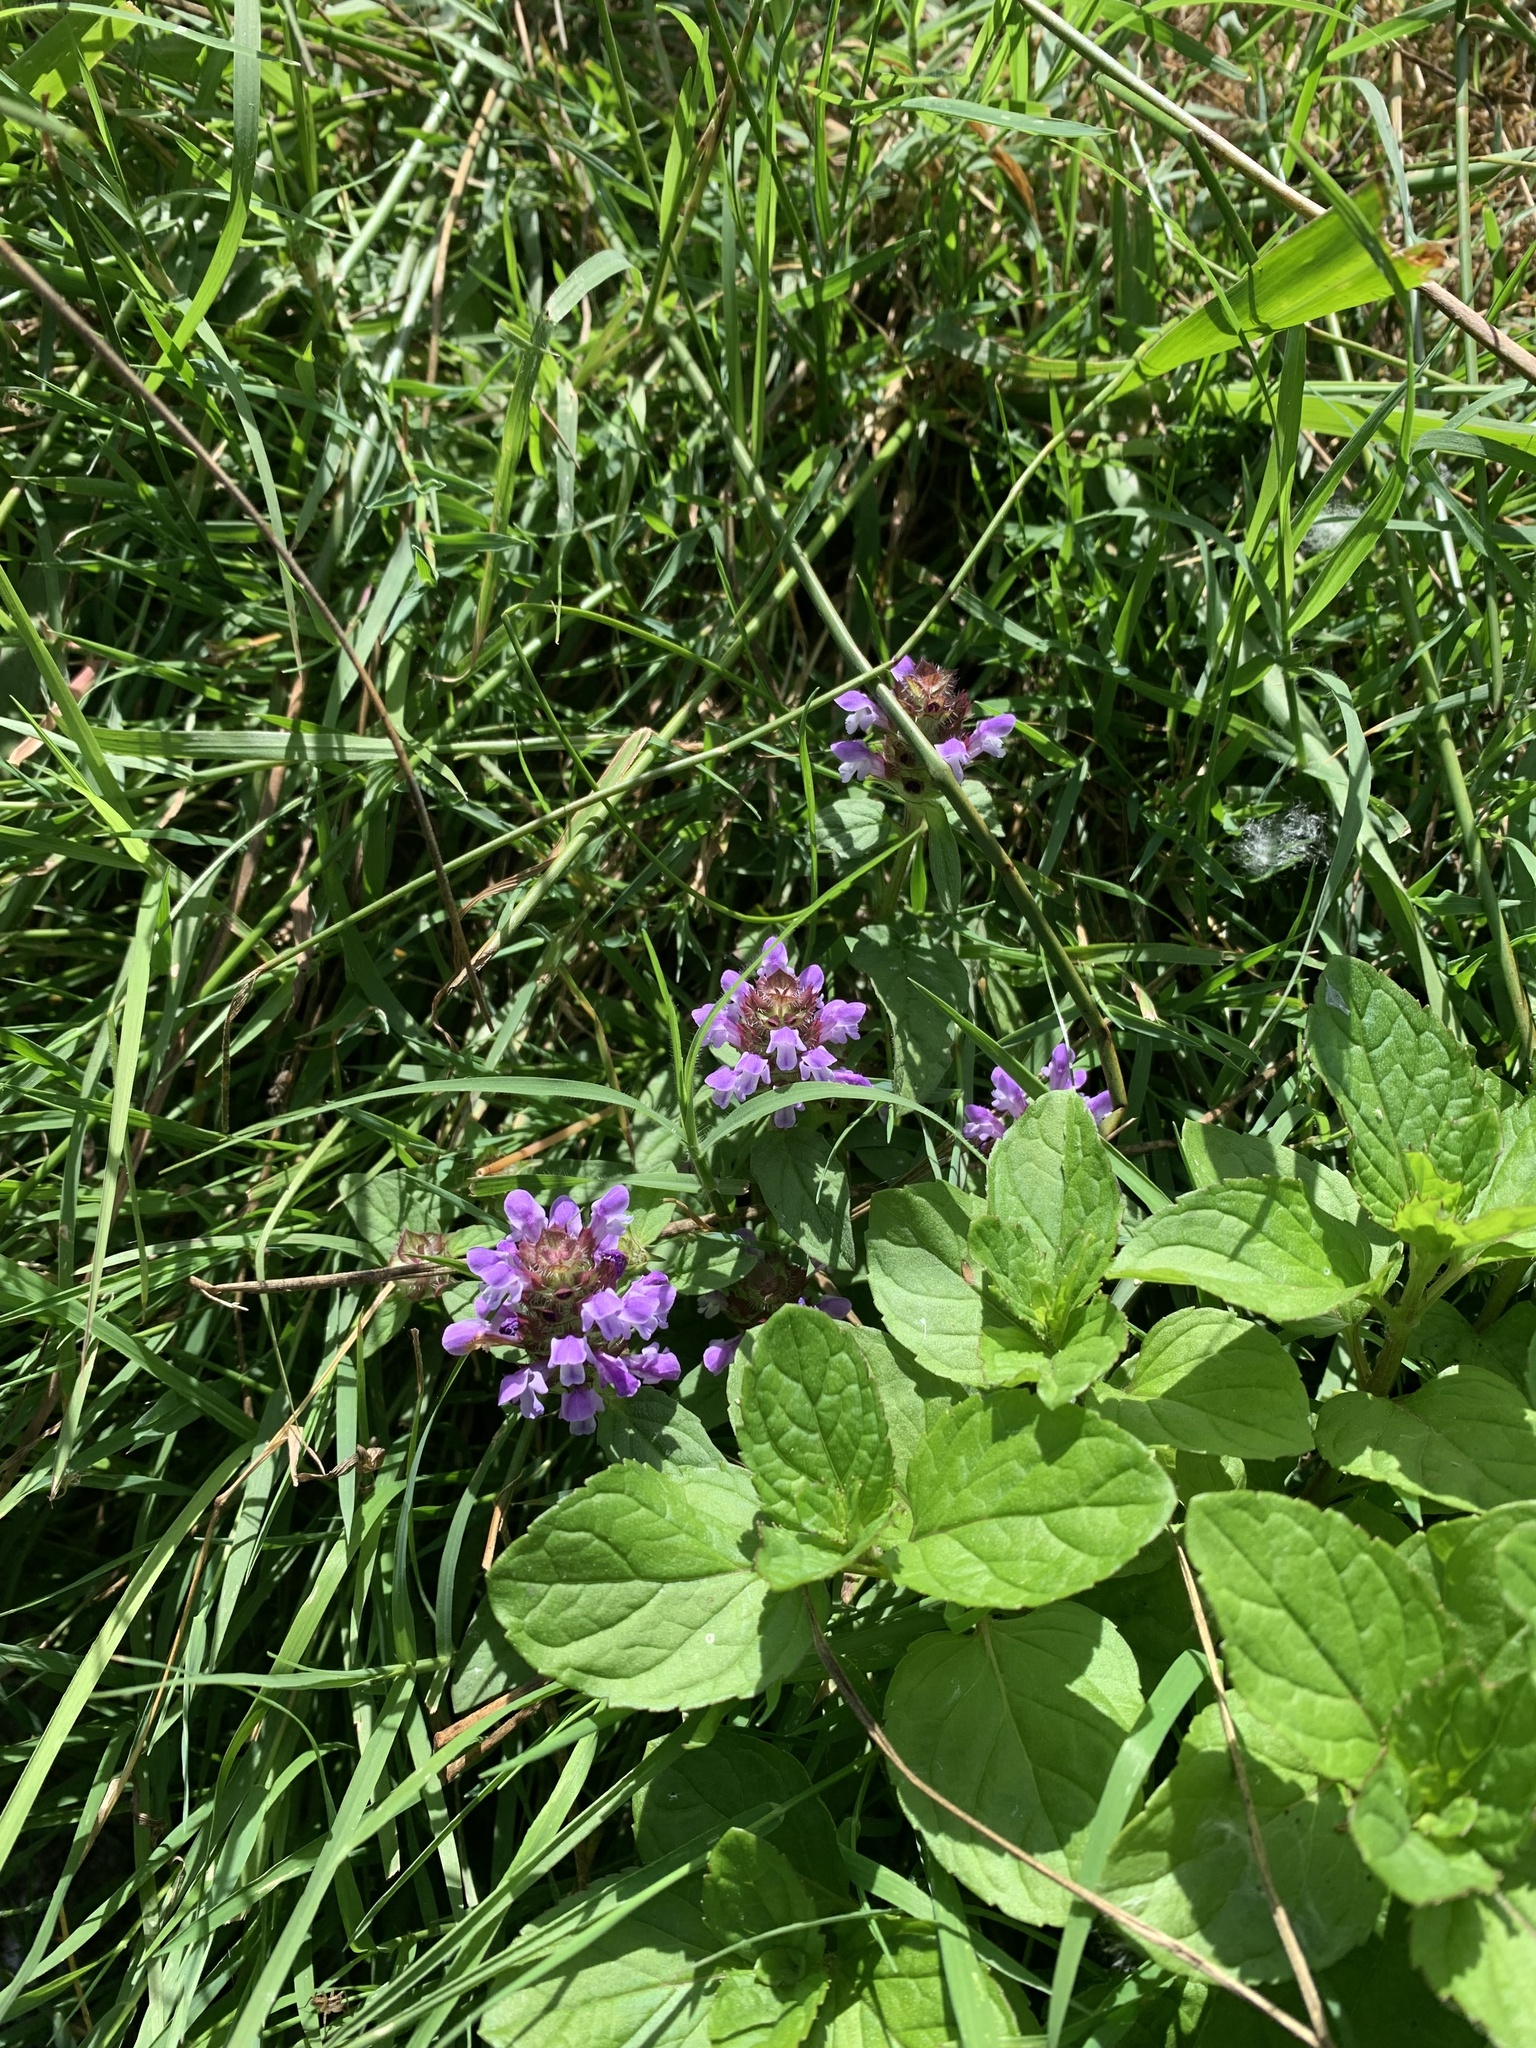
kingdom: Plantae
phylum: Tracheophyta
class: Magnoliopsida
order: Lamiales
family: Lamiaceae
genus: Prunella
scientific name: Prunella vulgaris
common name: Heal-all
